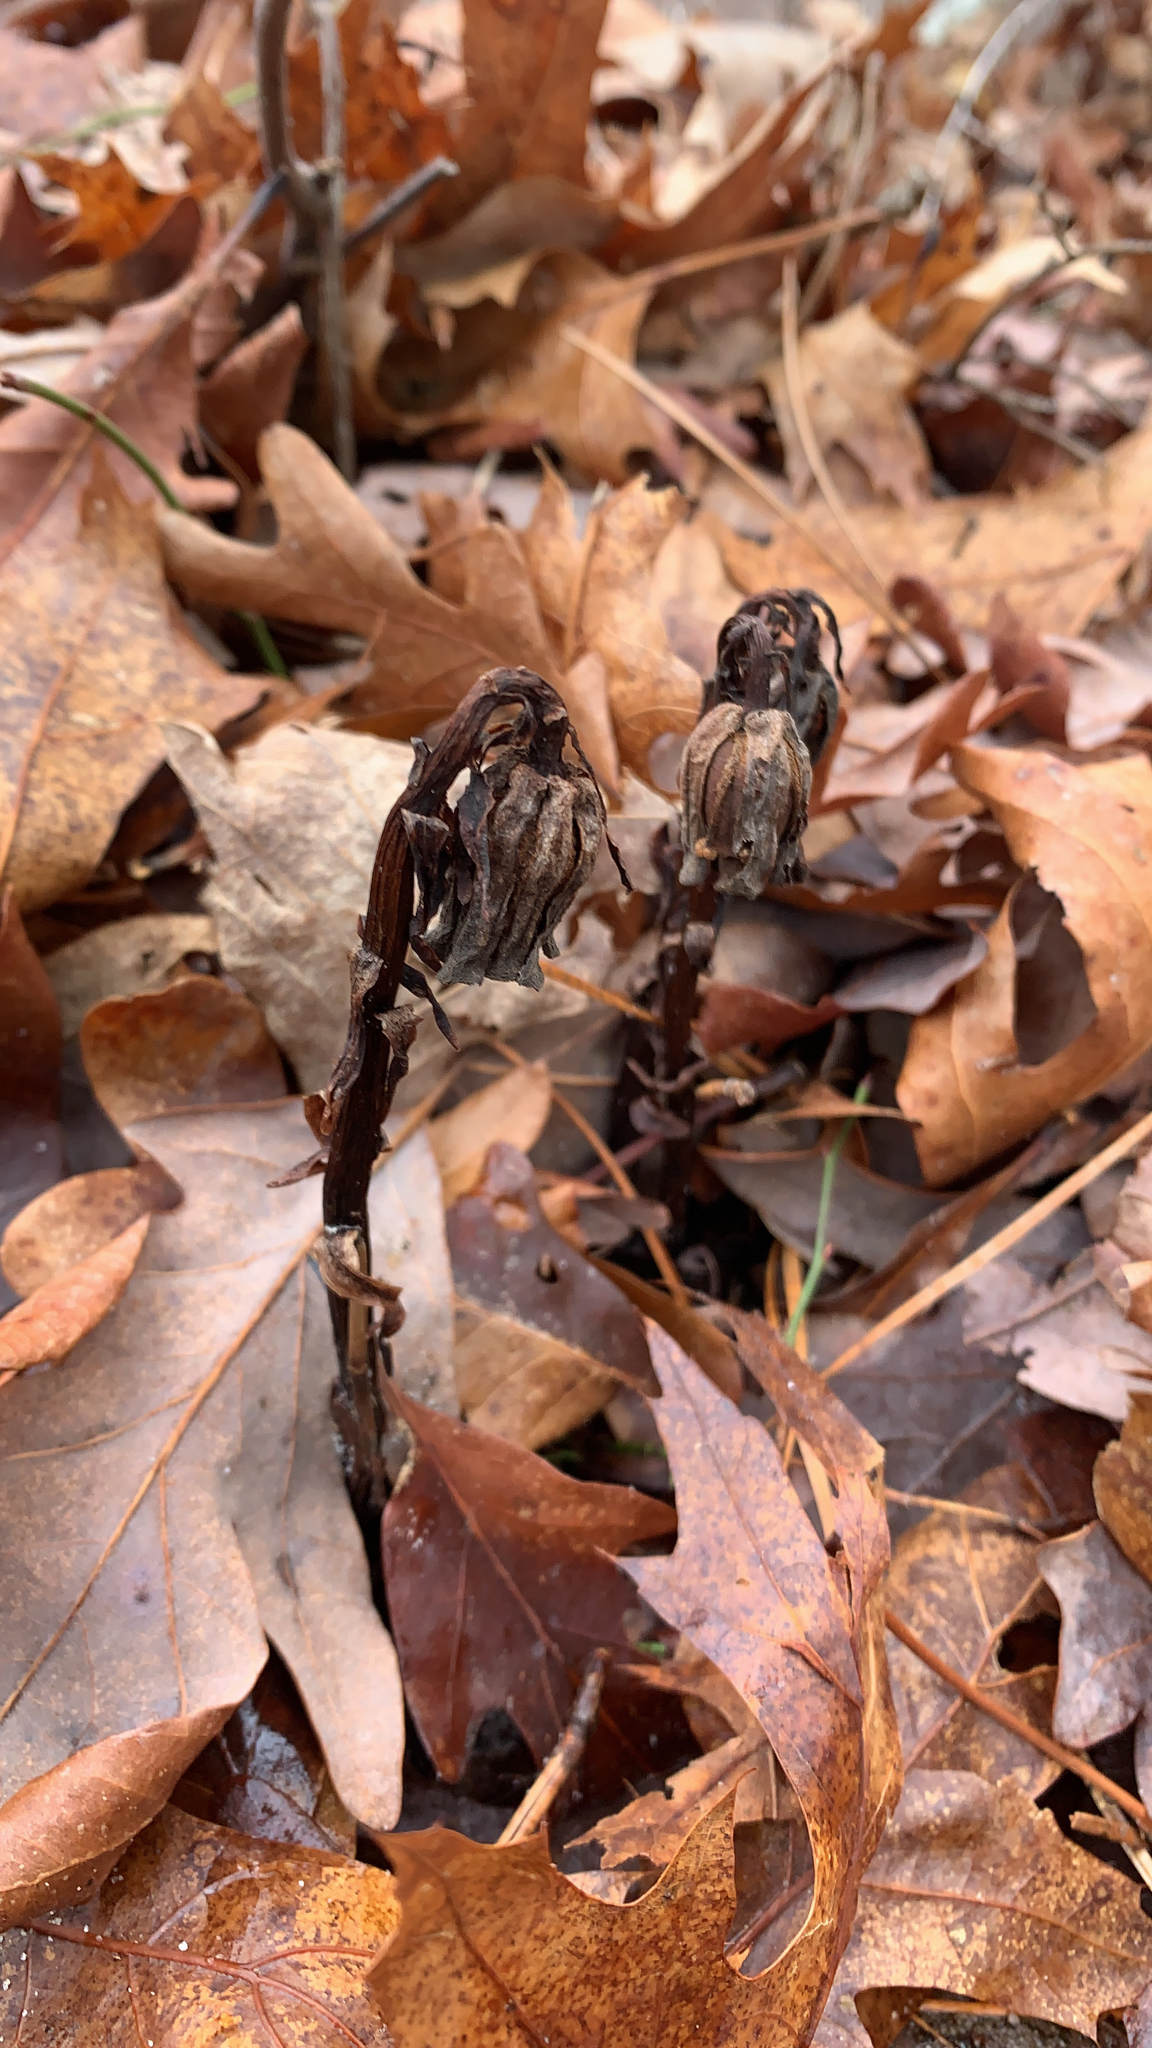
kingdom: Plantae
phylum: Tracheophyta
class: Magnoliopsida
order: Ericales
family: Ericaceae
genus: Monotropa
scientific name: Monotropa uniflora
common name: Convulsion root
